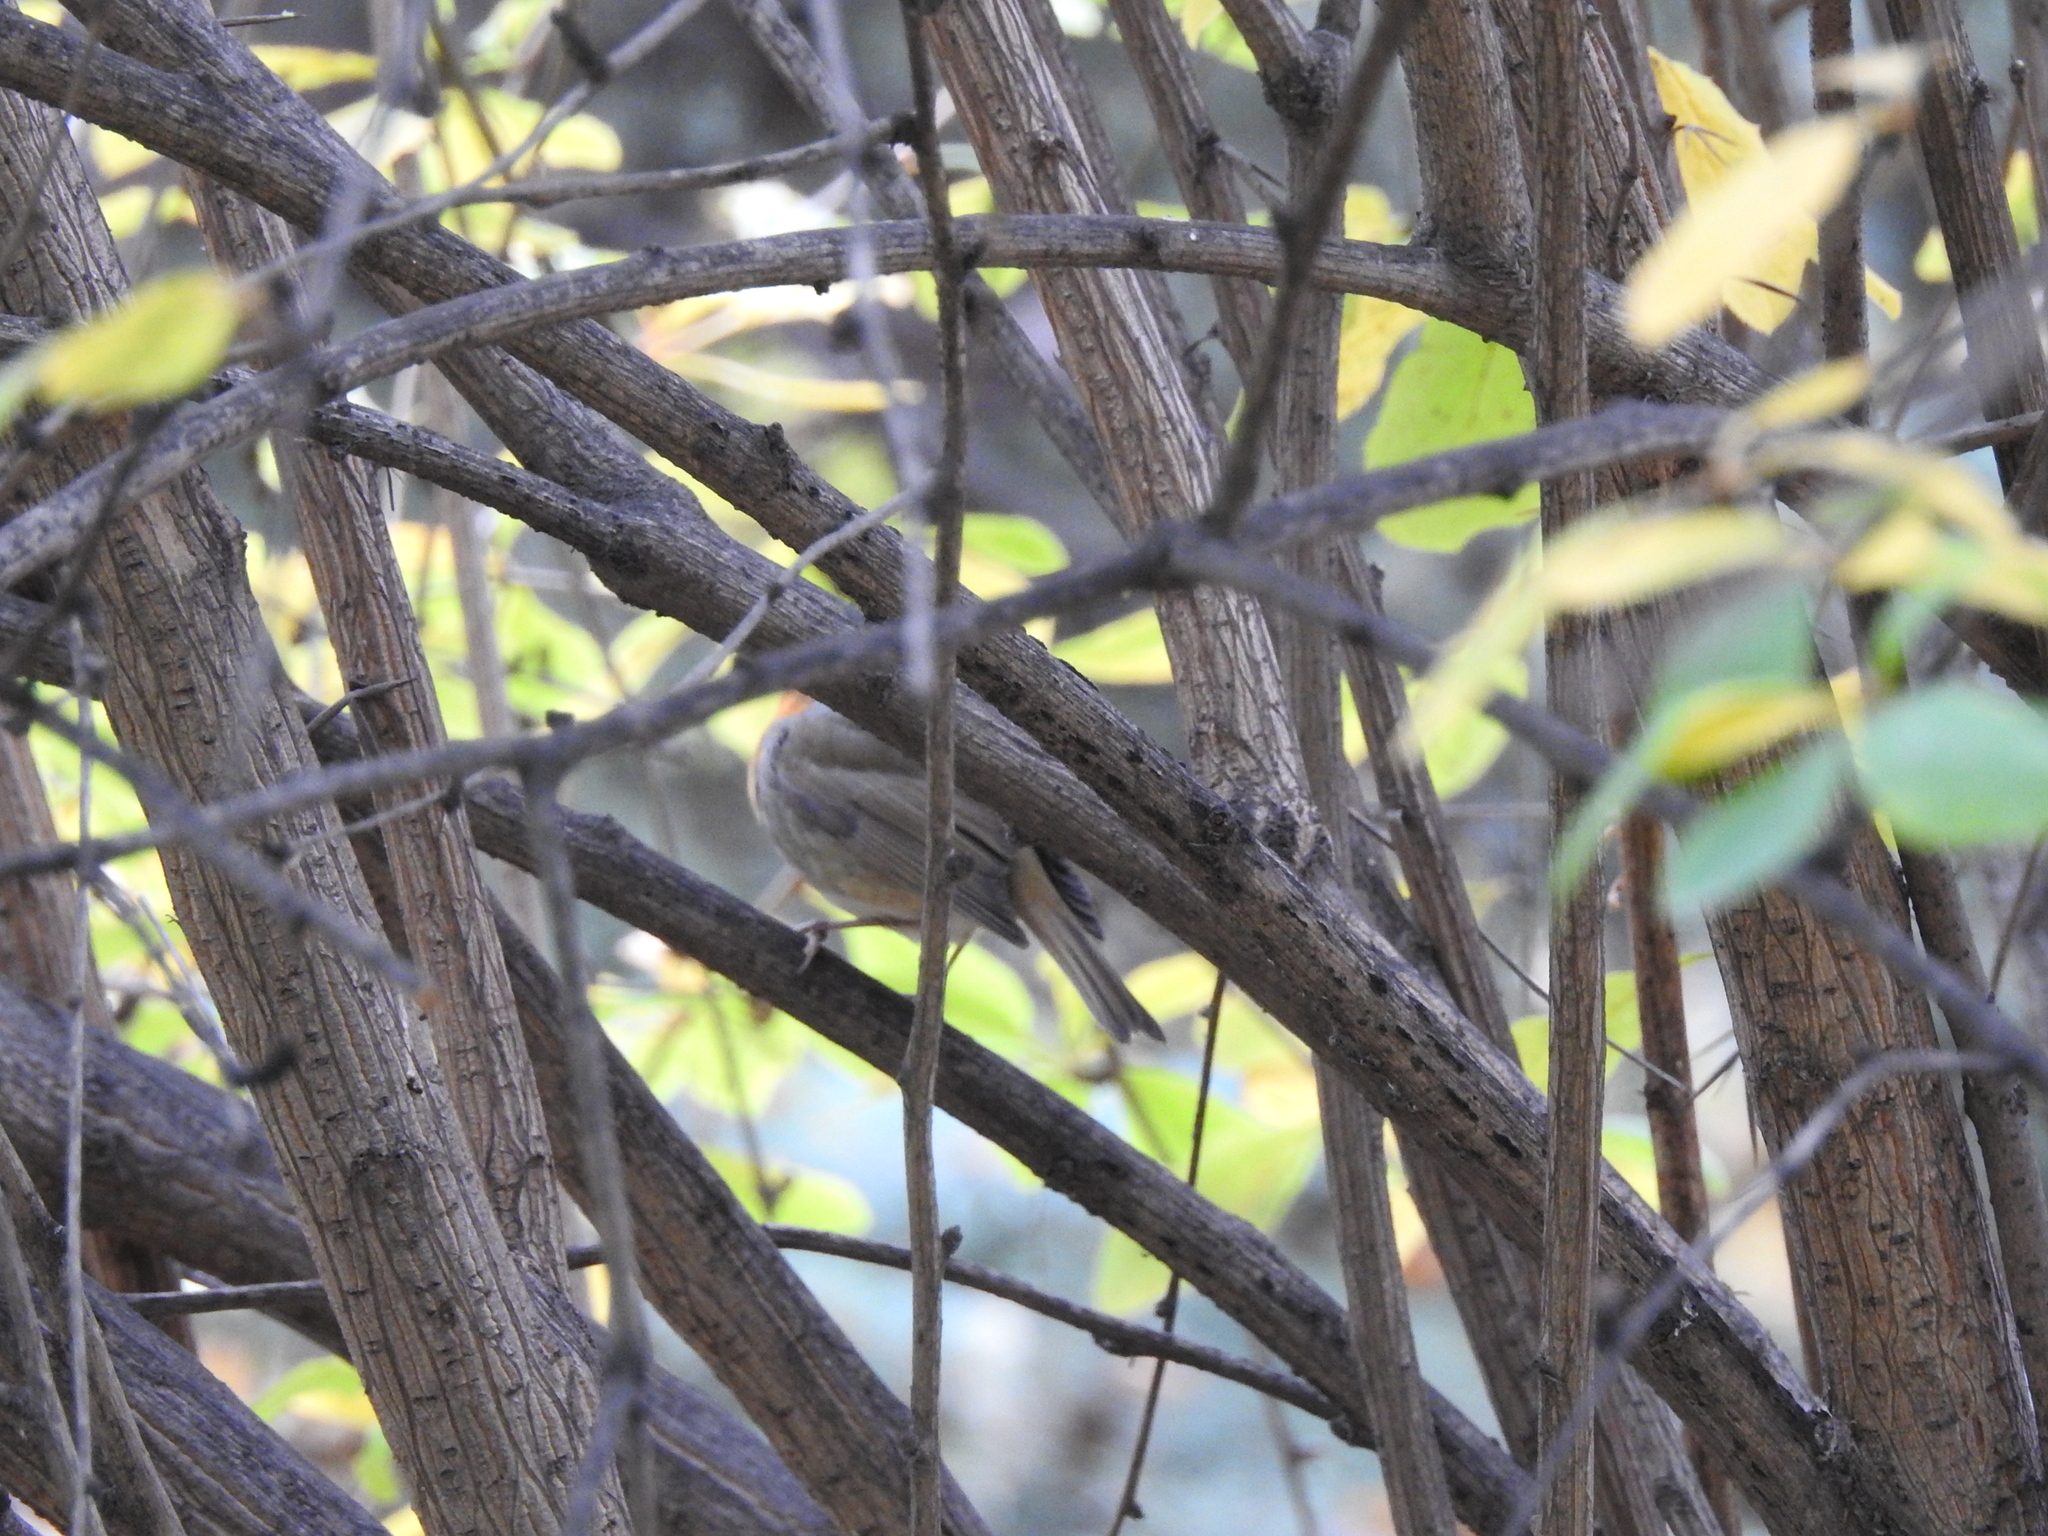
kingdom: Animalia
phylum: Chordata
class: Aves
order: Passeriformes
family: Muscicapidae
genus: Erithacus
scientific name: Erithacus rubecula
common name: European robin
